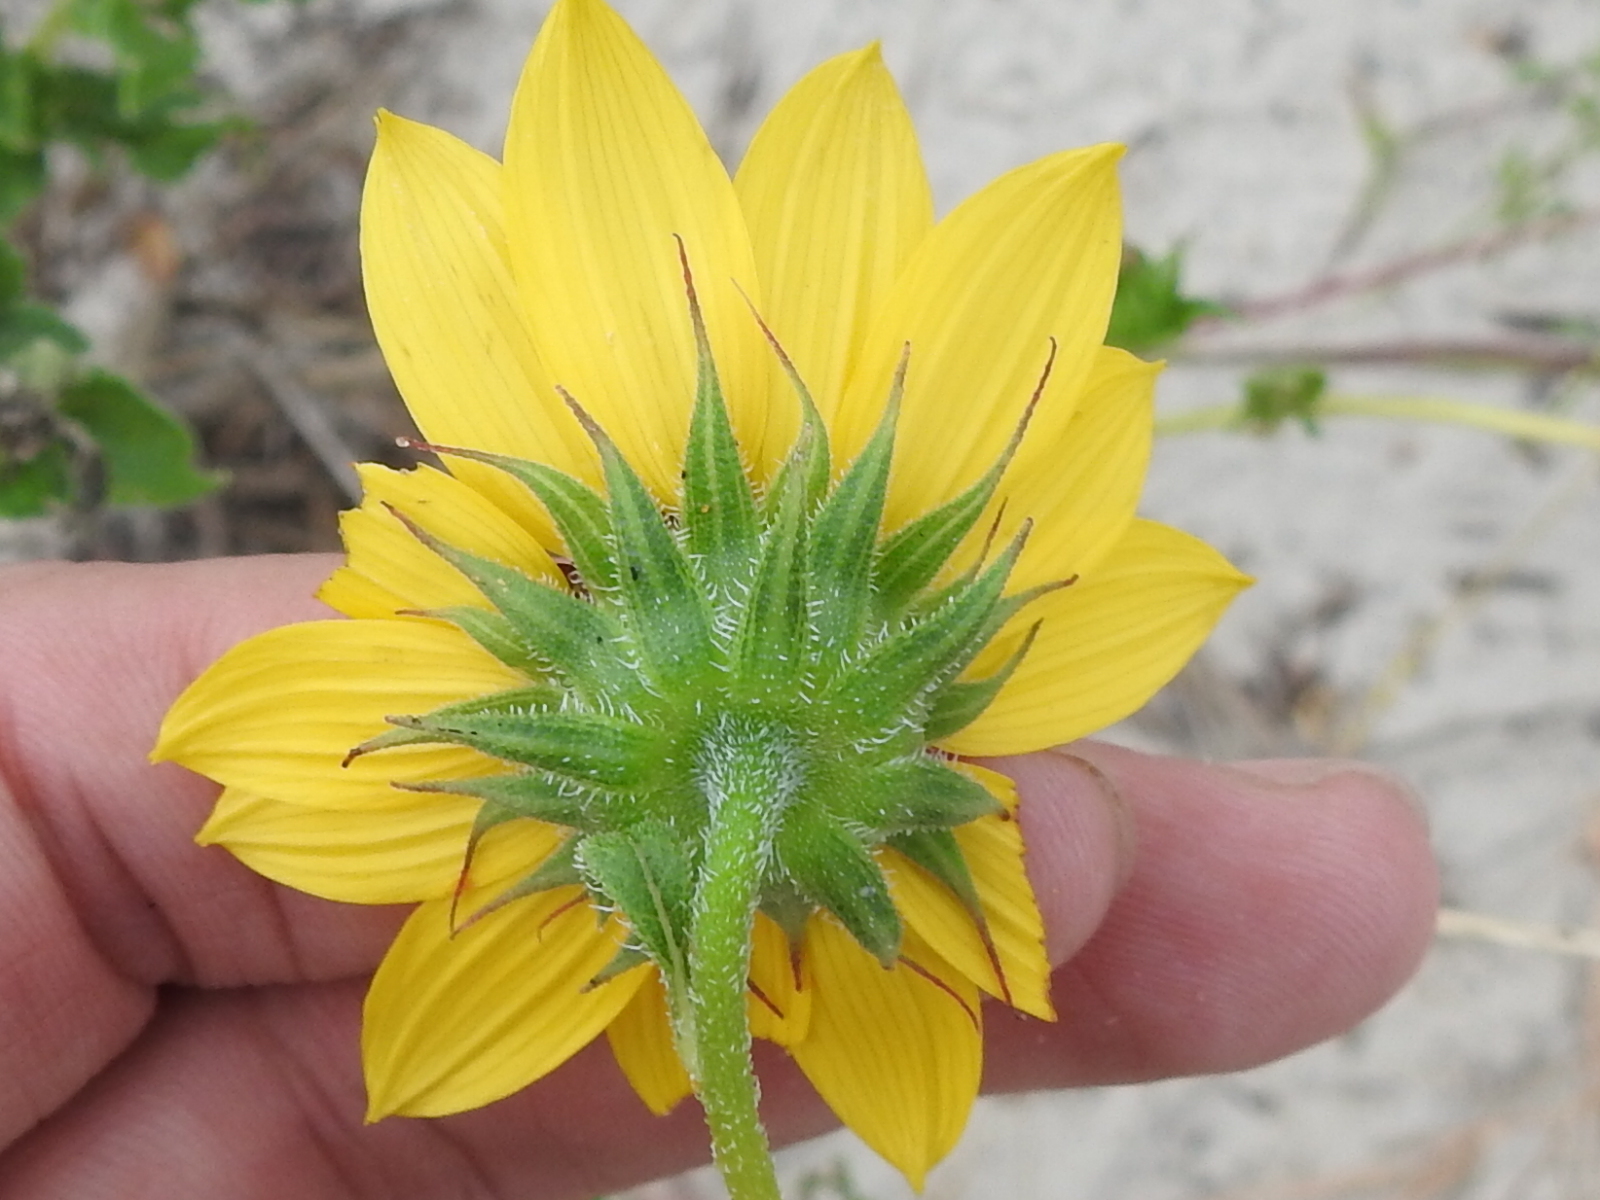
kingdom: Plantae
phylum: Tracheophyta
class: Magnoliopsida
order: Asterales
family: Asteraceae
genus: Helianthus
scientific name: Helianthus praecox
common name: Texas sunflower
